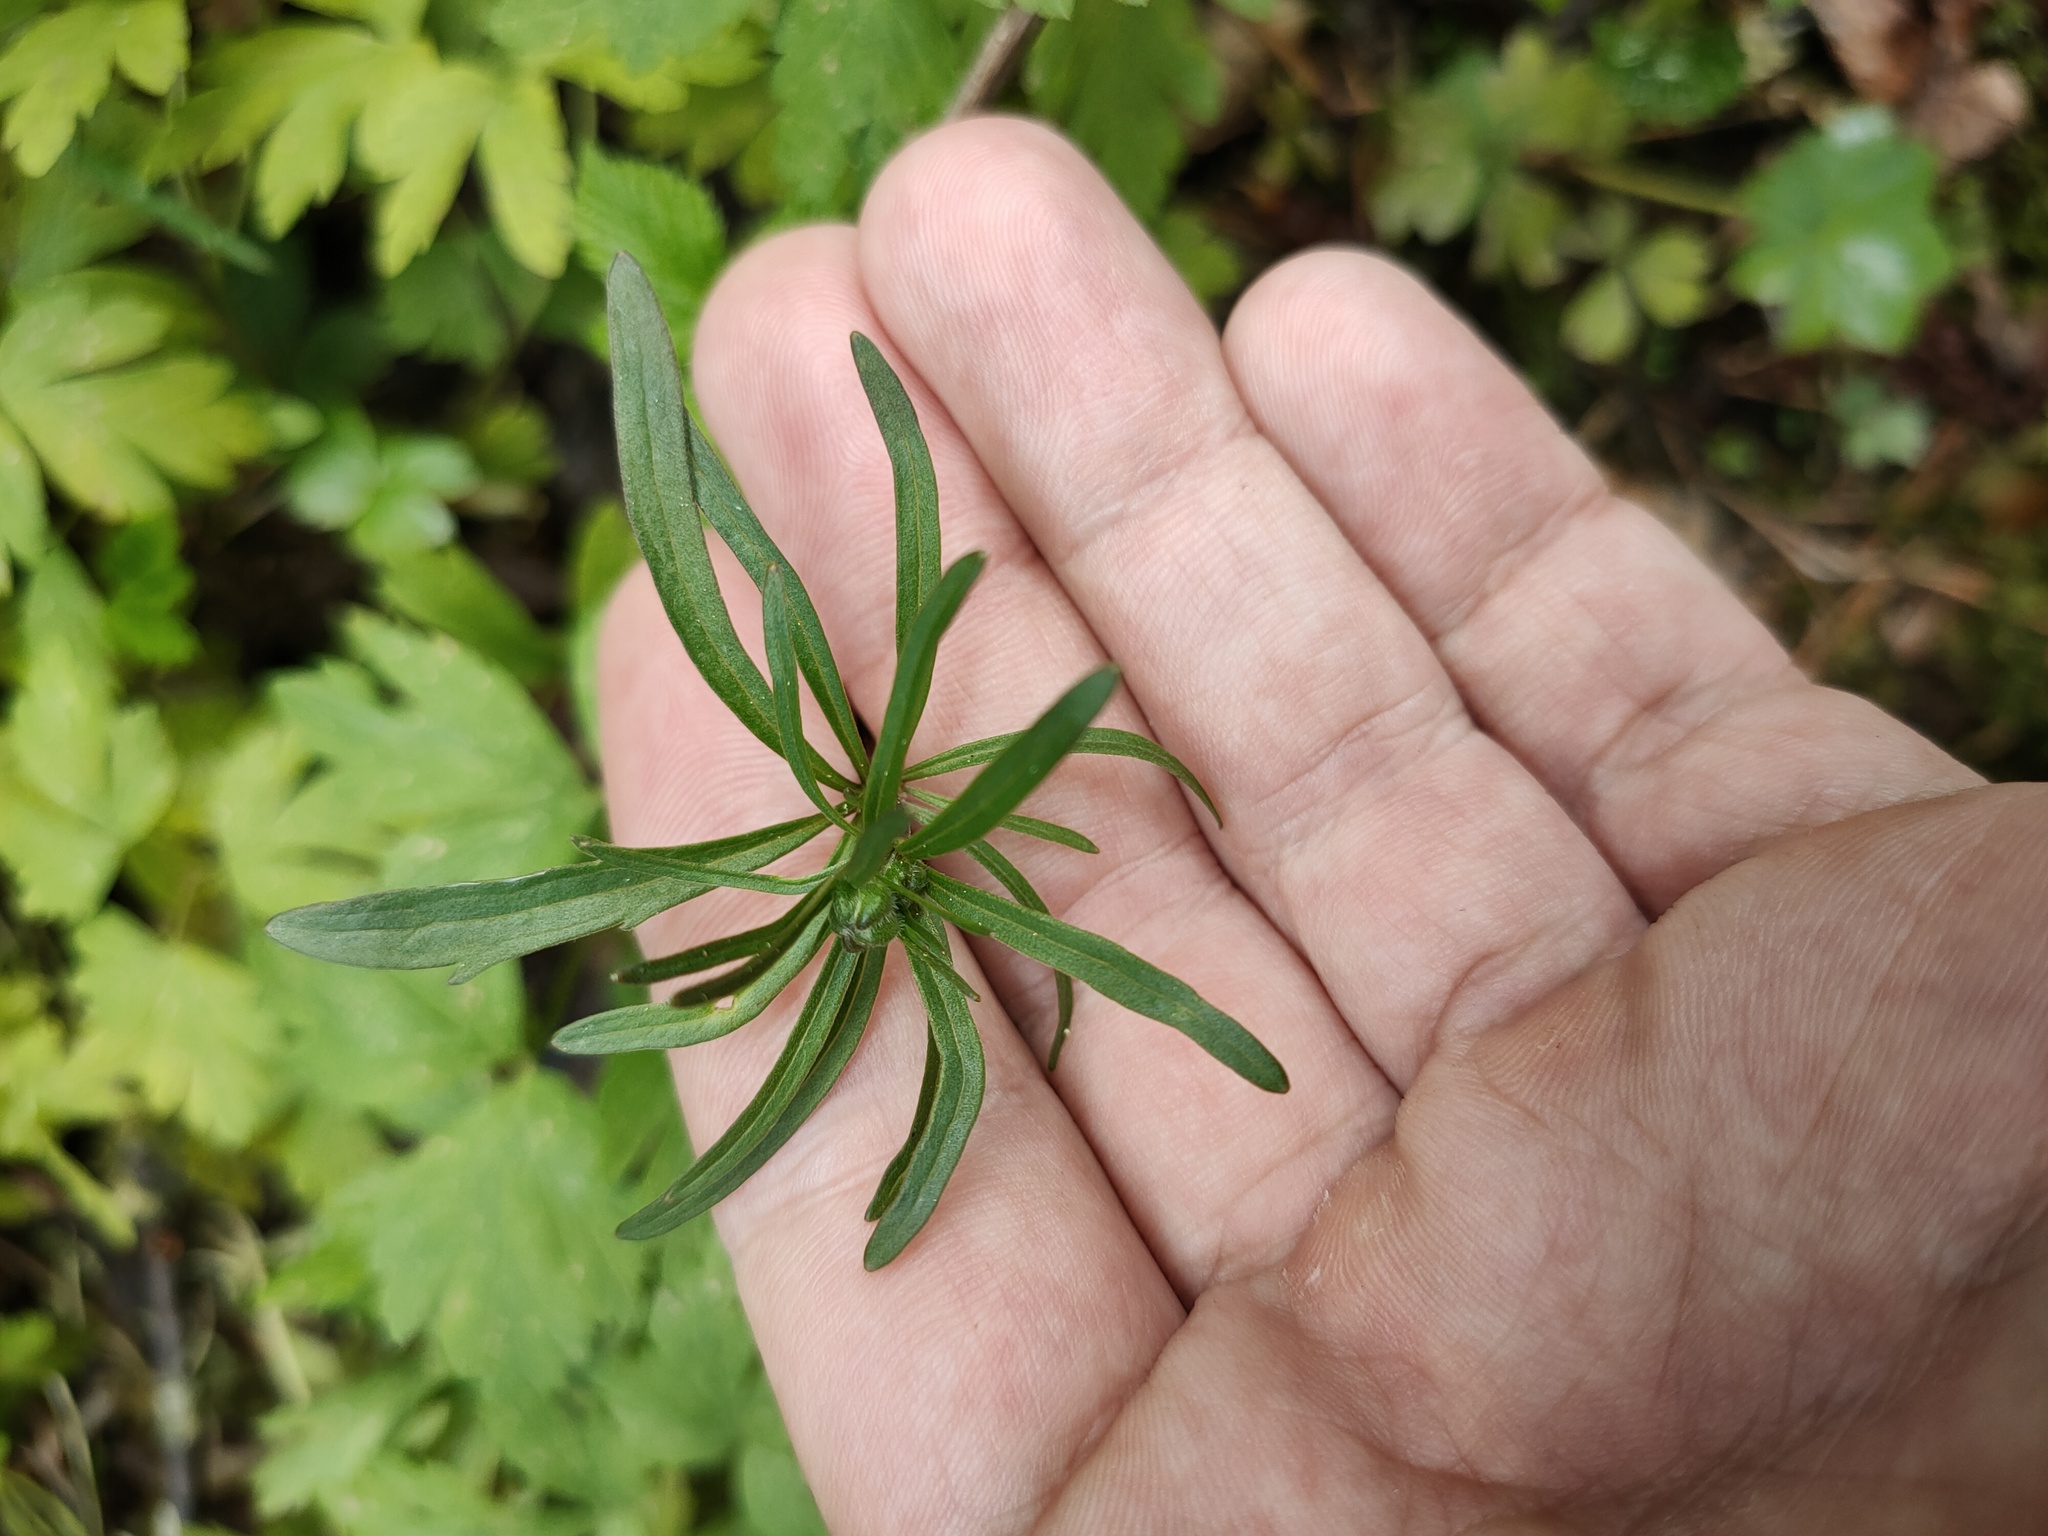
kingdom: Plantae
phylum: Tracheophyta
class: Magnoliopsida
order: Ranunculales
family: Ranunculaceae
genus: Ranunculus
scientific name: Ranunculus acris
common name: Meadow buttercup
